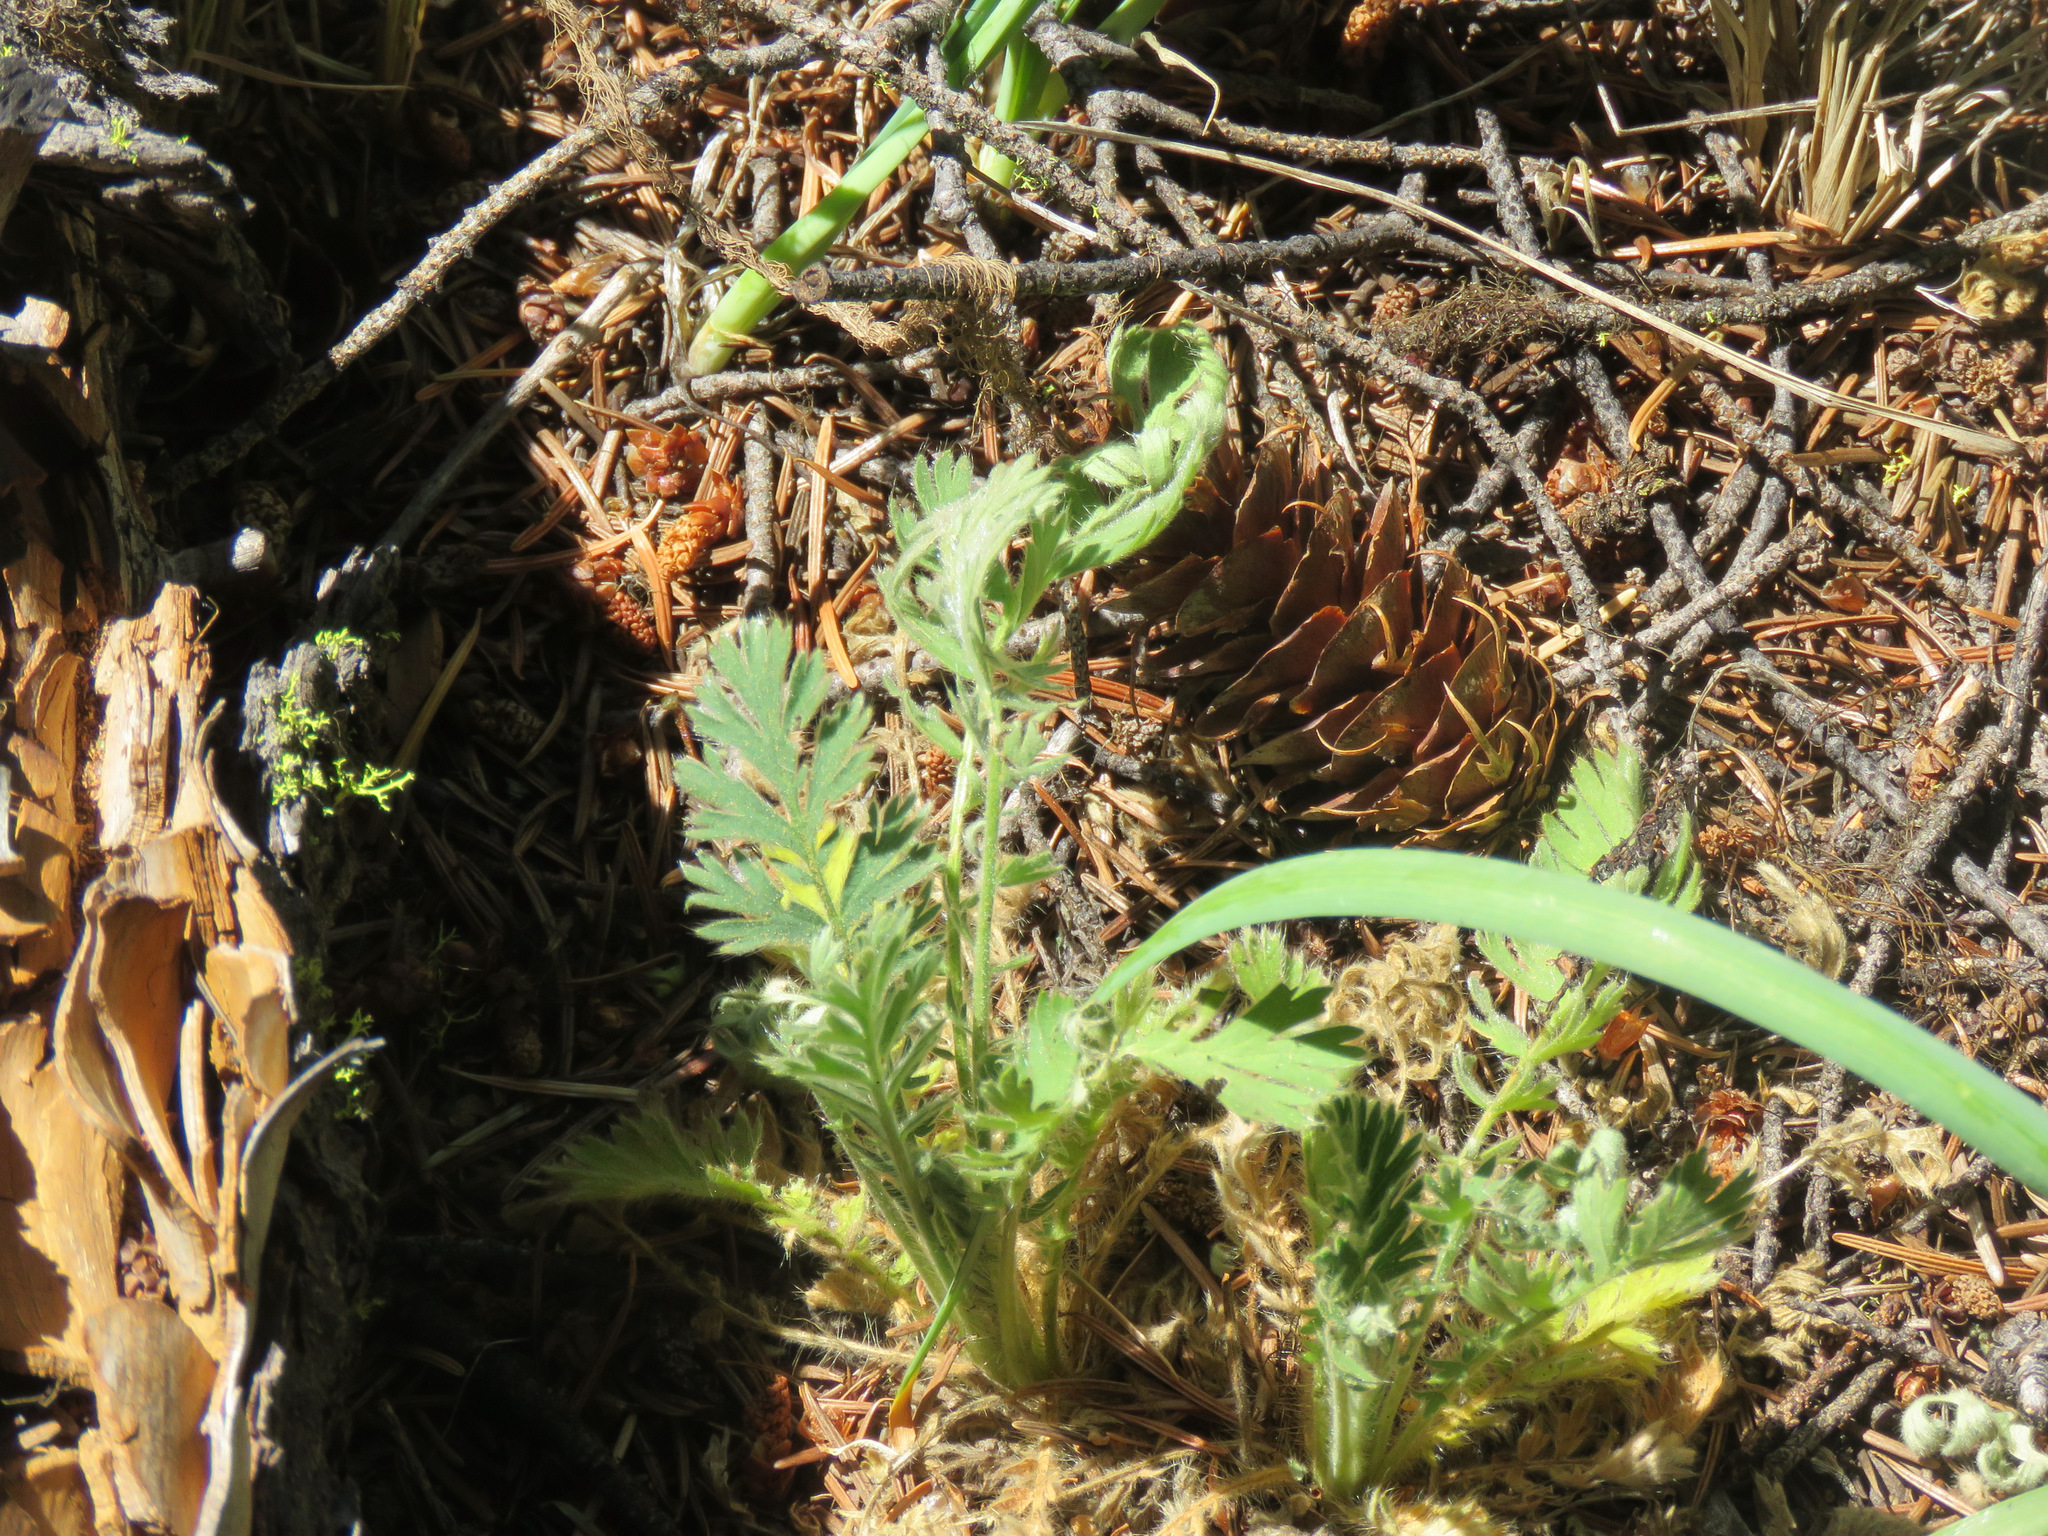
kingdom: Plantae
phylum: Tracheophyta
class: Magnoliopsida
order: Rosales
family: Rosaceae
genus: Geum
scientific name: Geum triflorum
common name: Old man's whiskers
